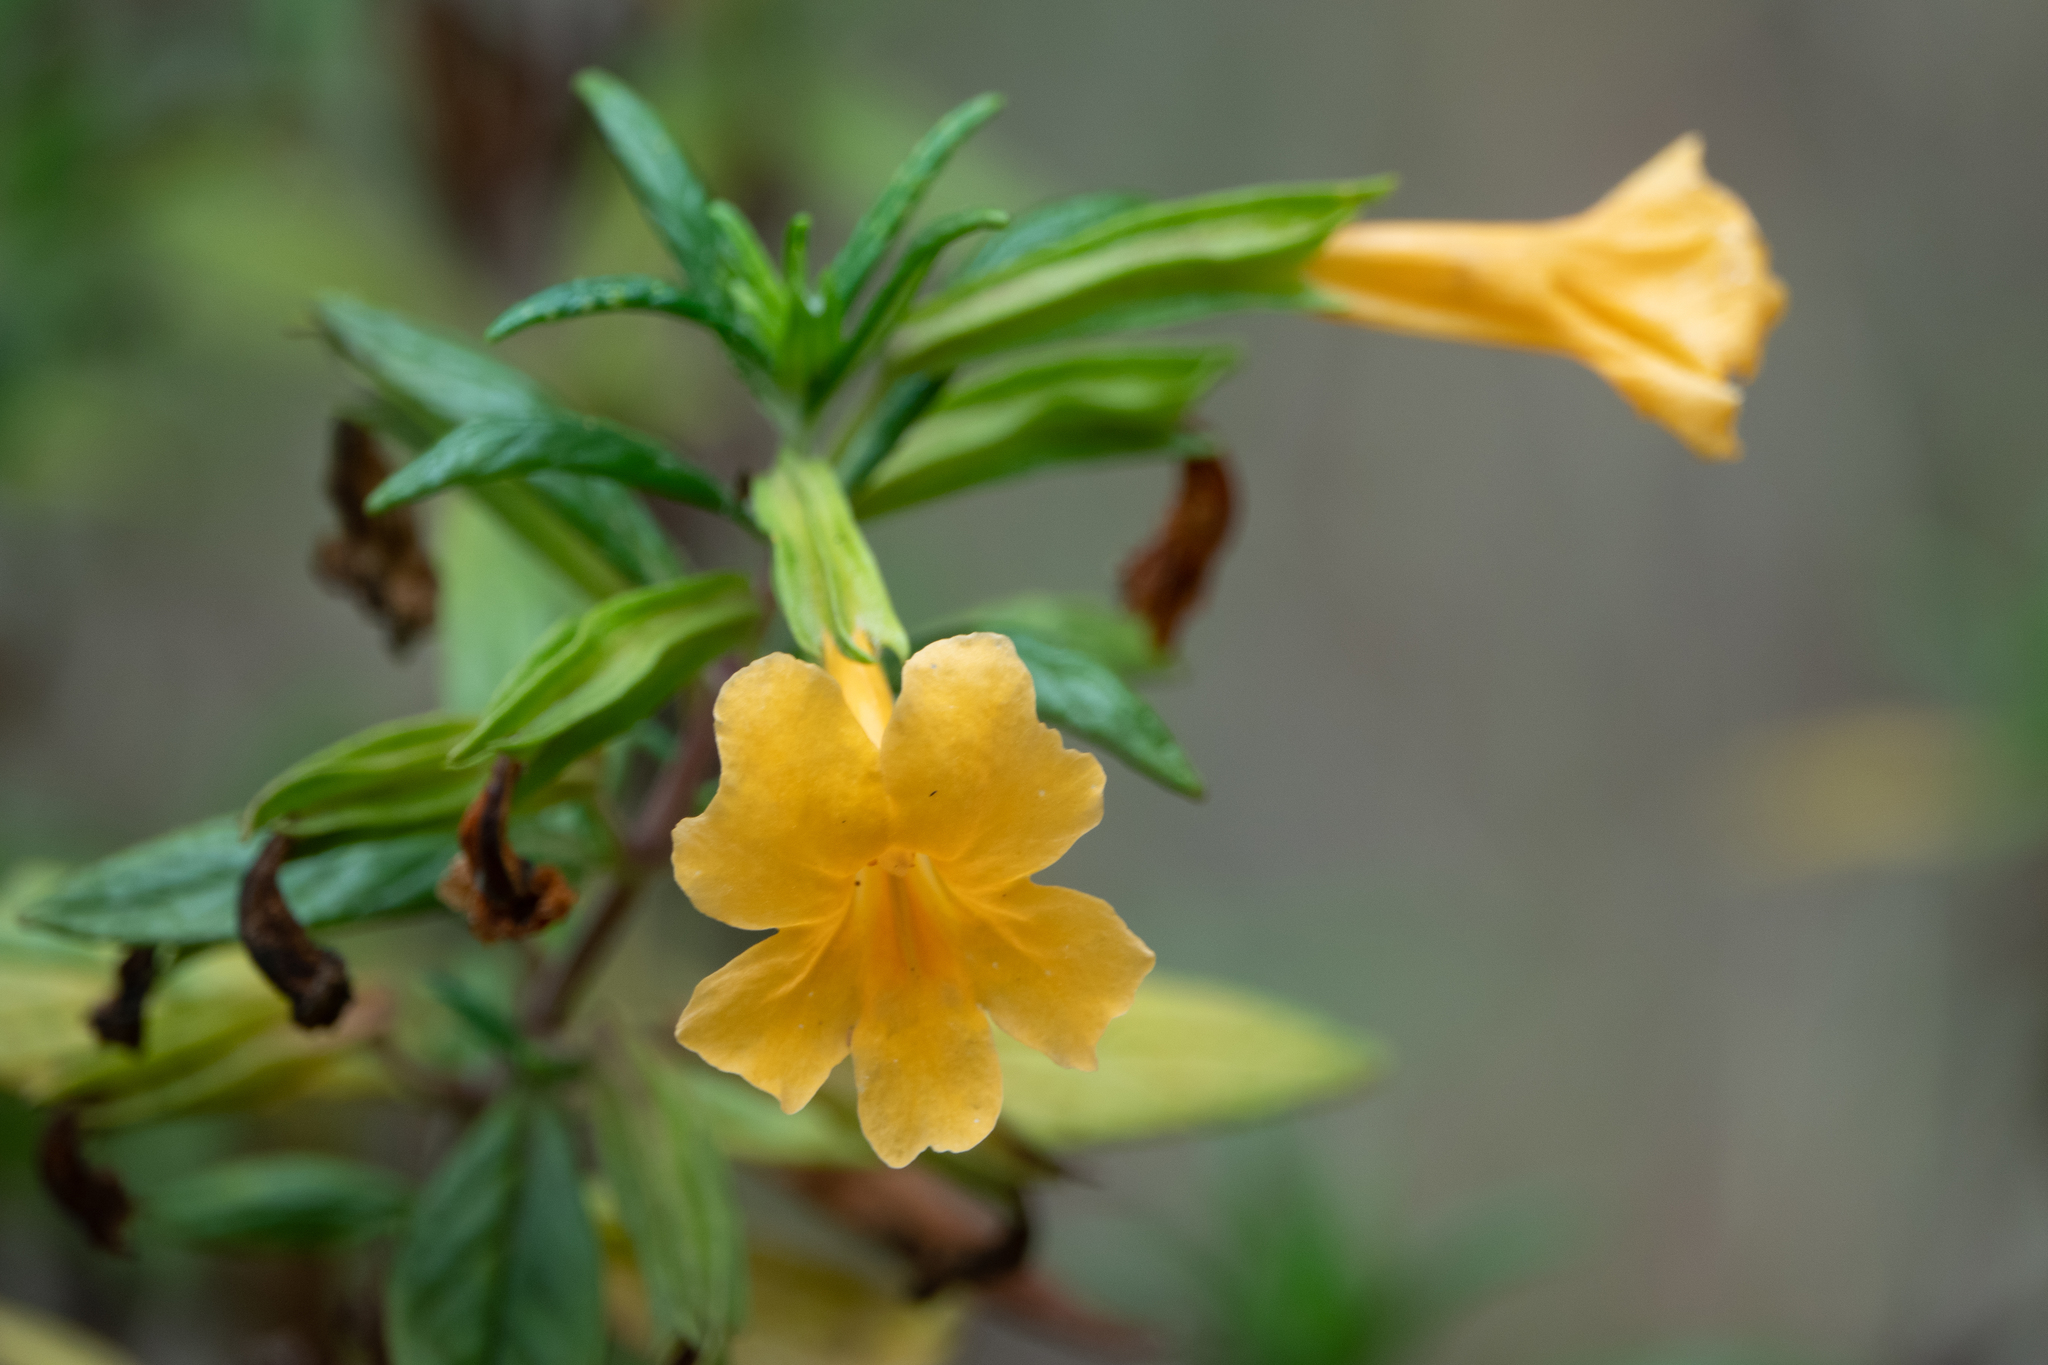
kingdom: Plantae
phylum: Tracheophyta
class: Magnoliopsida
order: Lamiales
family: Phrymaceae
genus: Diplacus
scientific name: Diplacus aurantiacus
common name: Bush monkey-flower
